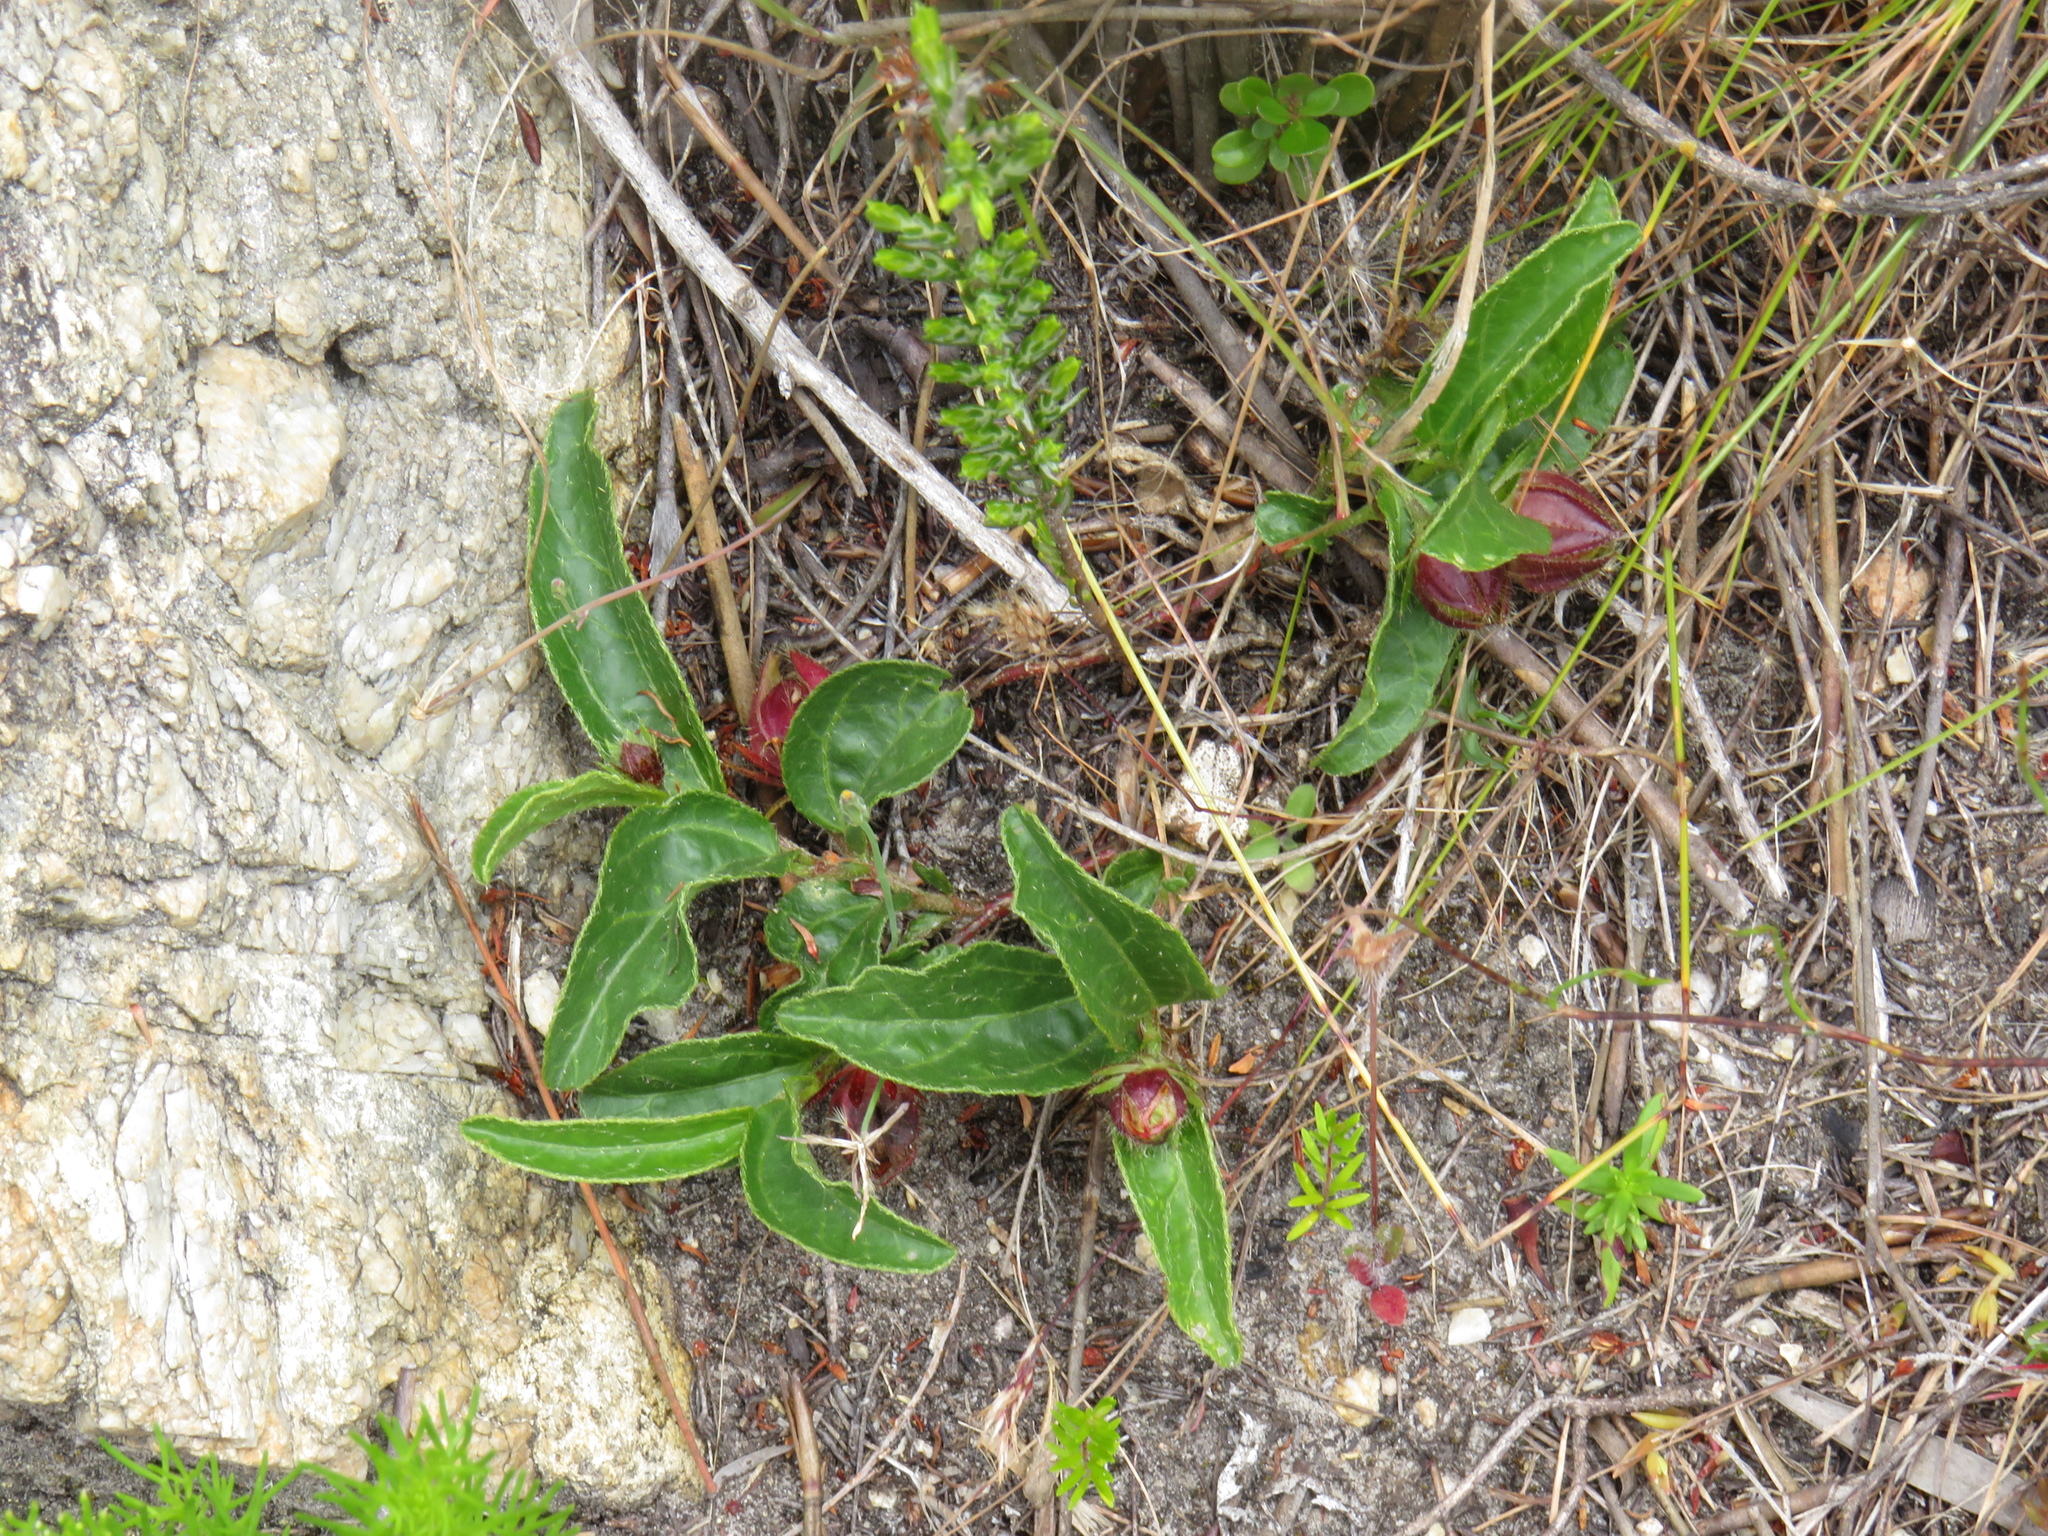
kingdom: Plantae
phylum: Tracheophyta
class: Magnoliopsida
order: Malvales
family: Malvaceae
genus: Hibiscus
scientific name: Hibiscus aethiopicus
